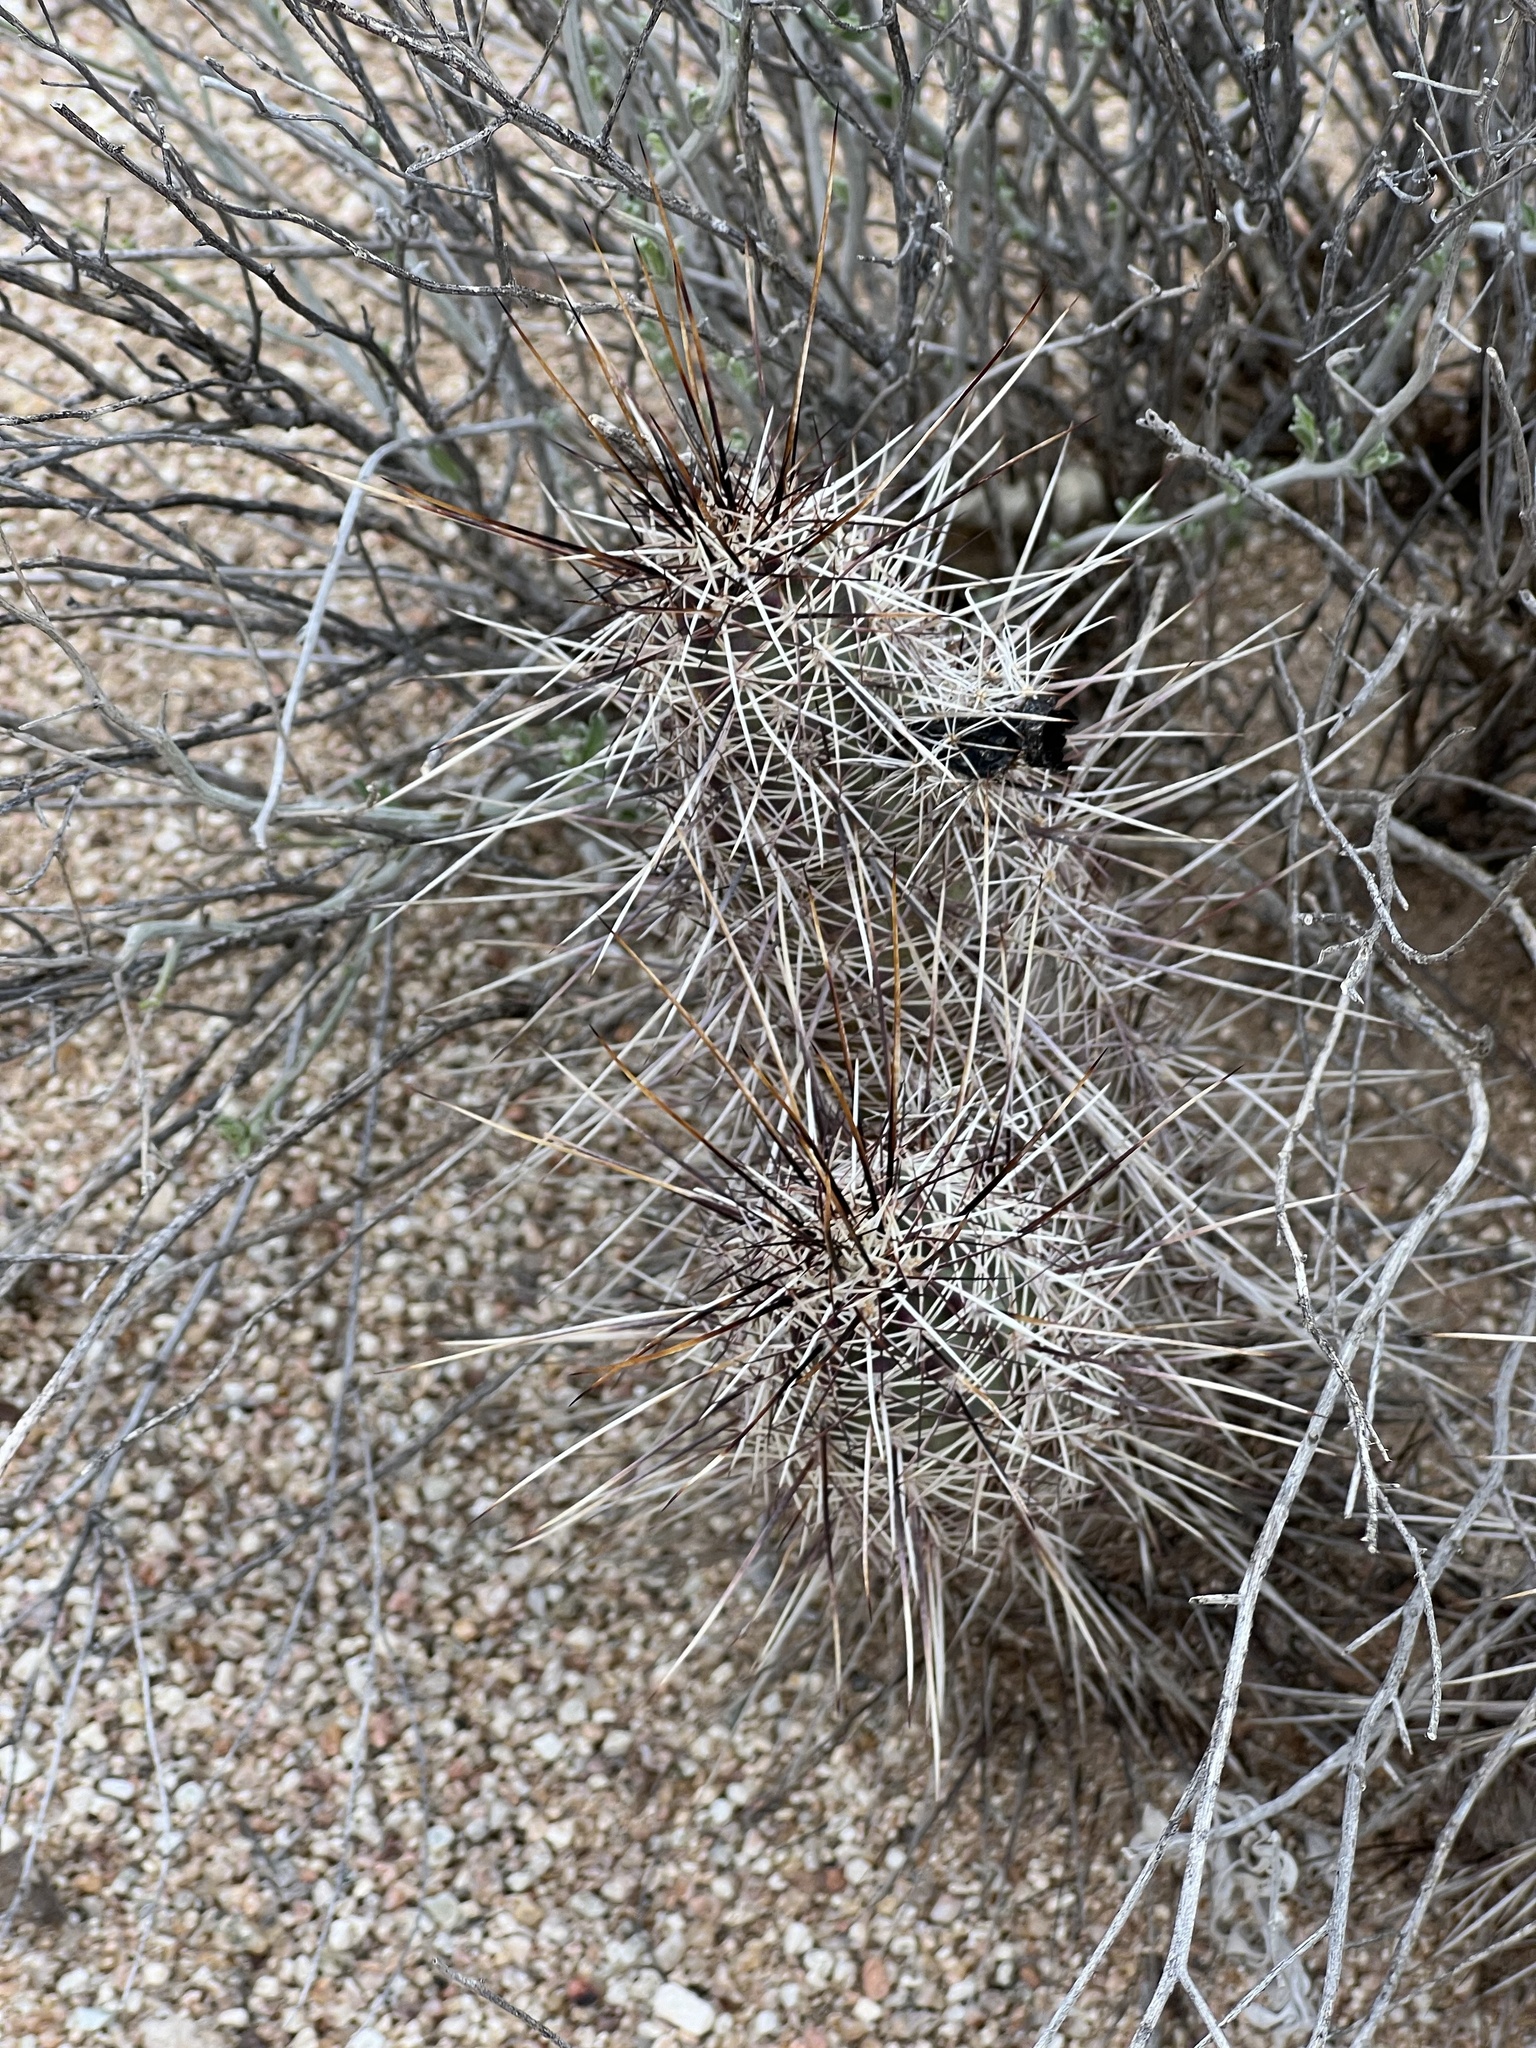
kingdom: Plantae
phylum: Tracheophyta
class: Magnoliopsida
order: Caryophyllales
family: Cactaceae
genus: Echinocereus
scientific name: Echinocereus fasciculatus
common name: Bundle hedgehog
